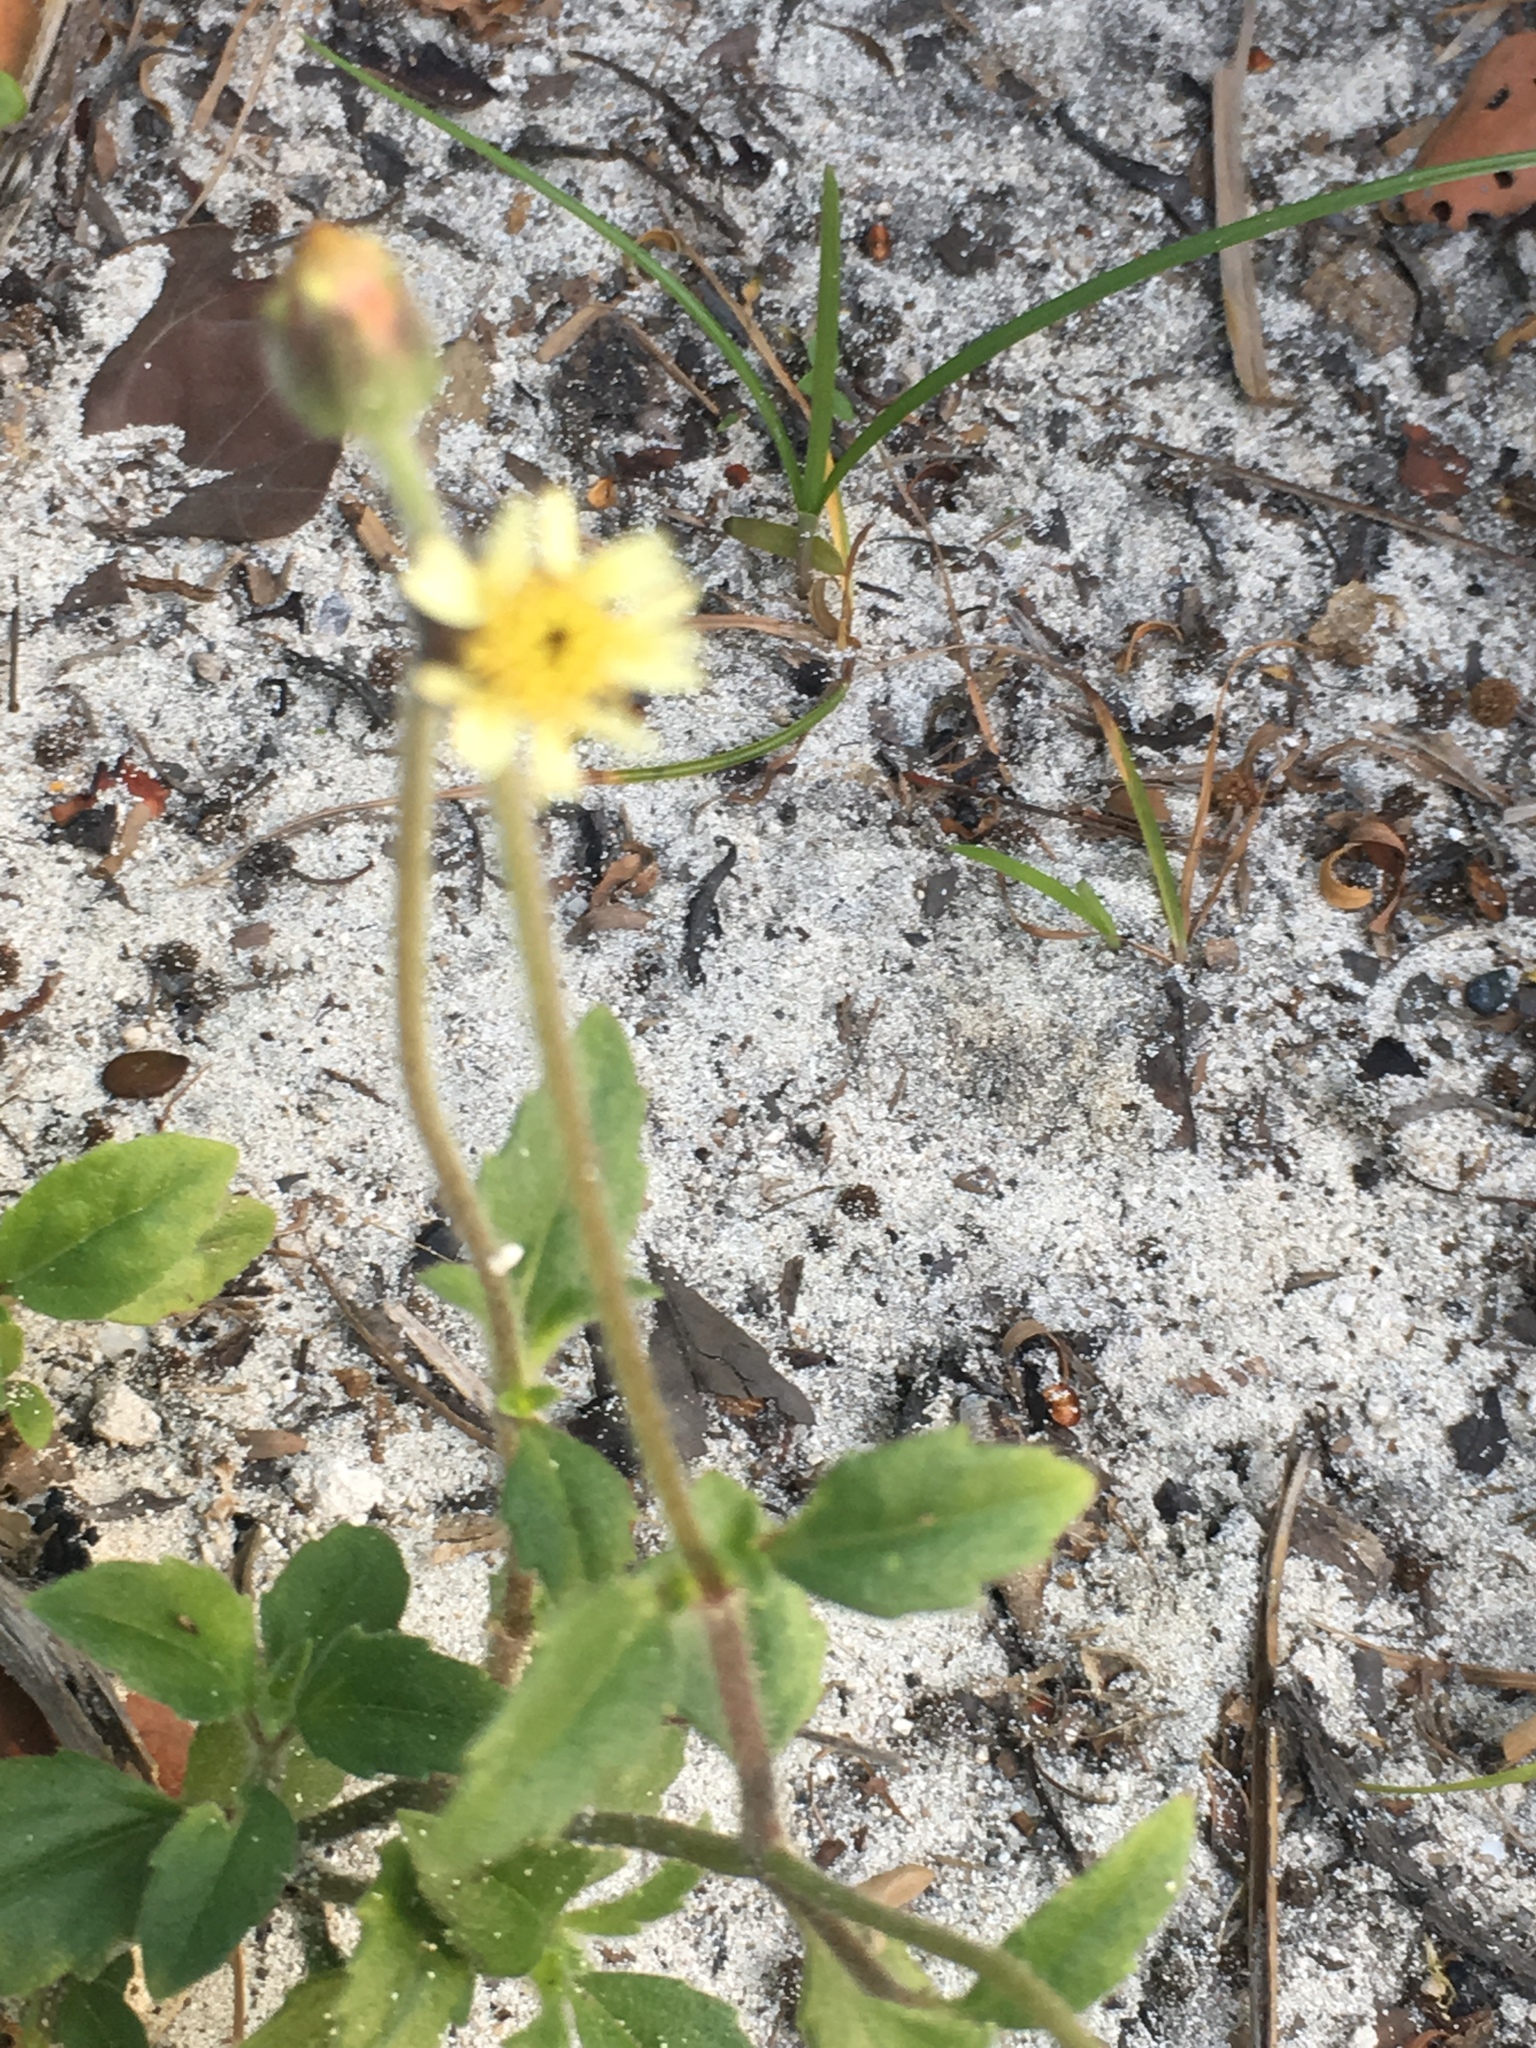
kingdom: Plantae
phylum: Tracheophyta
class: Magnoliopsida
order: Asterales
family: Asteraceae
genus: Tridax
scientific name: Tridax procumbens
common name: Coatbuttons
